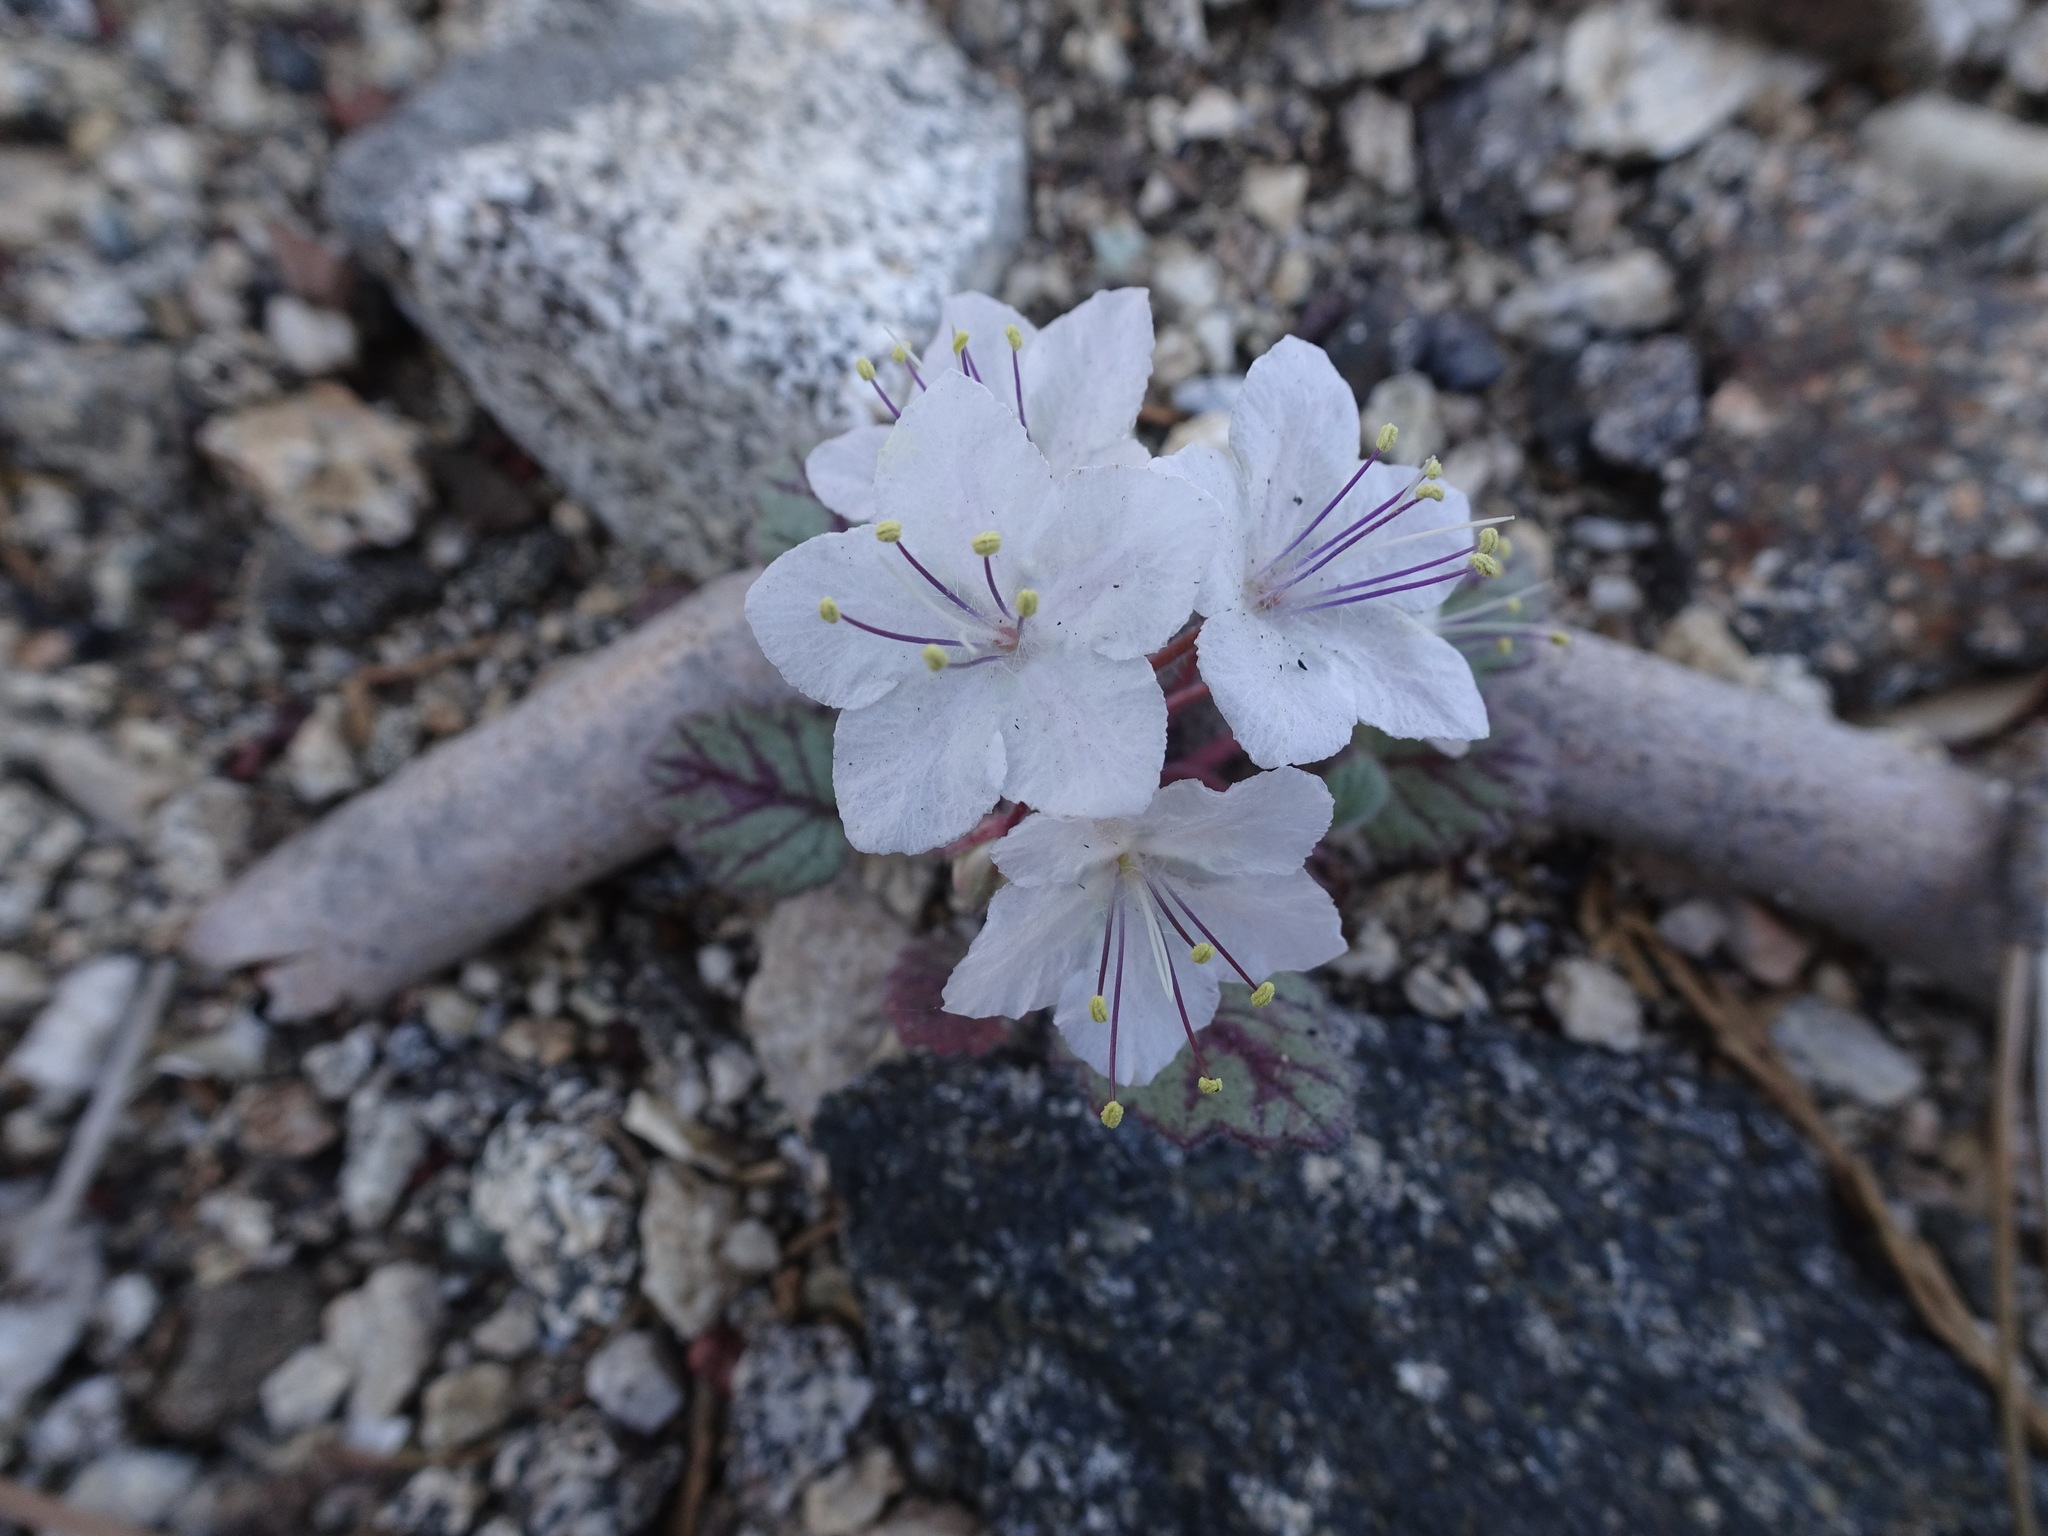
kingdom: Plantae
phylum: Tracheophyta
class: Magnoliopsida
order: Boraginales
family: Hydrophyllaceae
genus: Phacelia
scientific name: Phacelia longipes
